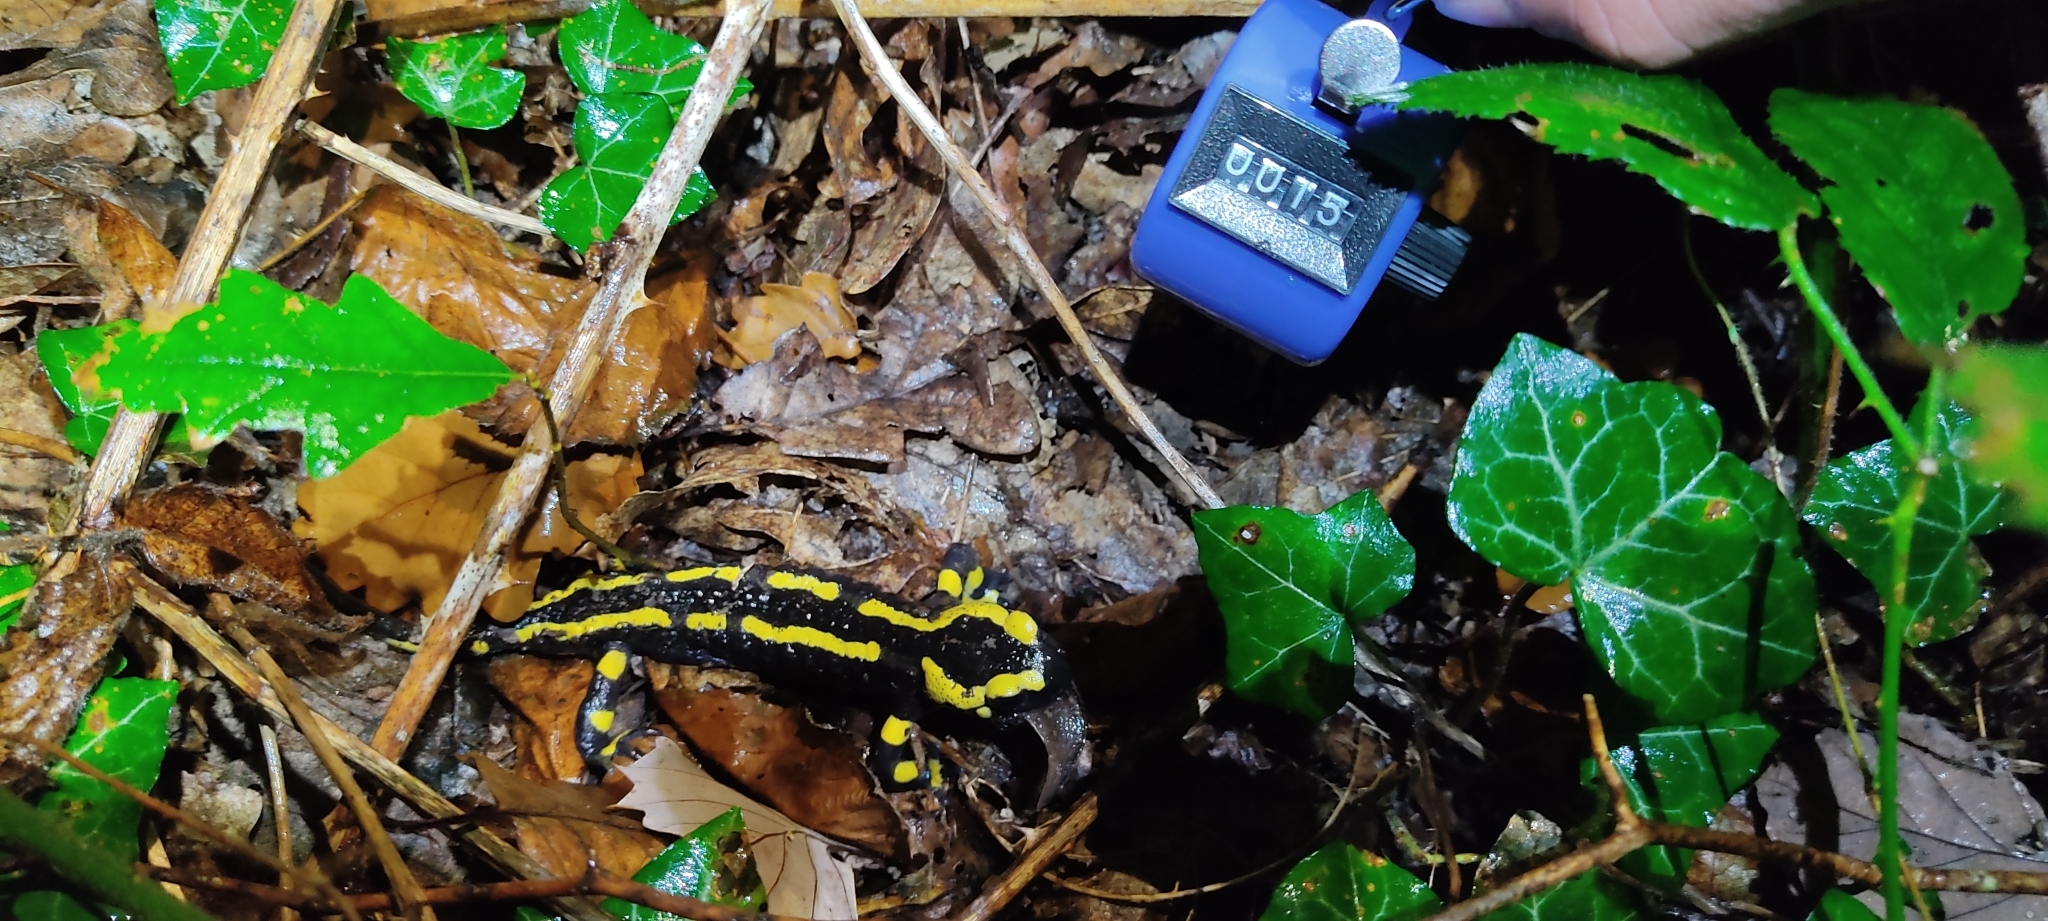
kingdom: Animalia
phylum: Chordata
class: Amphibia
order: Caudata
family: Salamandridae
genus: Salamandra
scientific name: Salamandra salamandra
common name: Fire salamander
